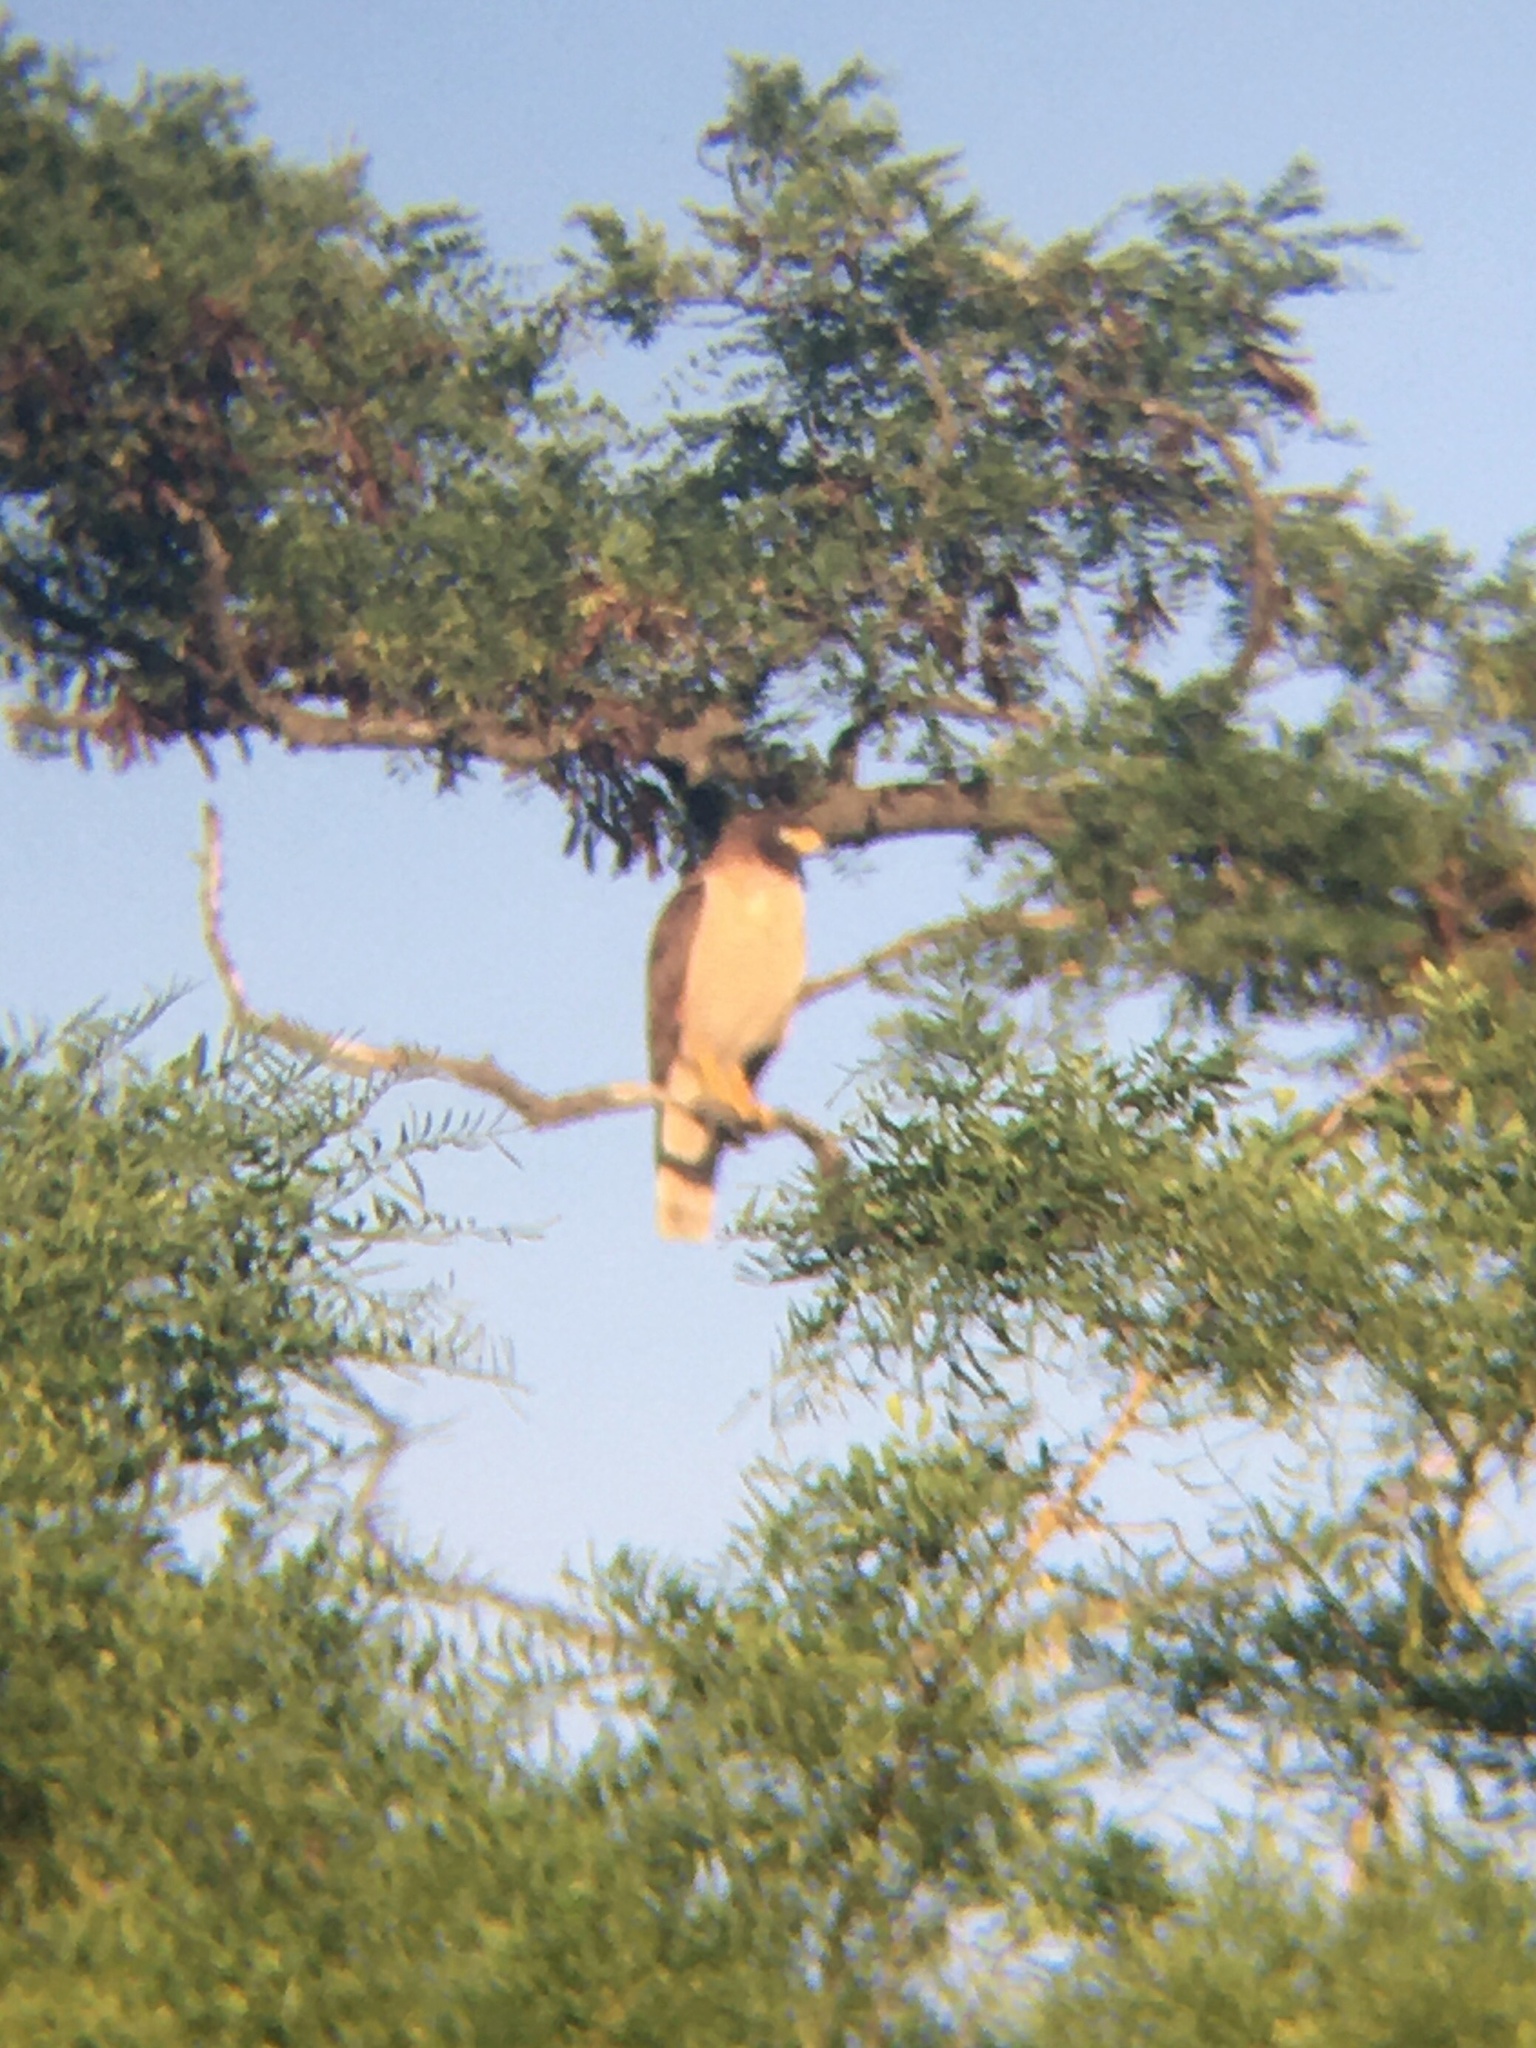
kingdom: Animalia
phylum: Chordata
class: Aves
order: Accipitriformes
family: Accipitridae
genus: Rupornis
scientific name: Rupornis magnirostris
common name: Roadside hawk
